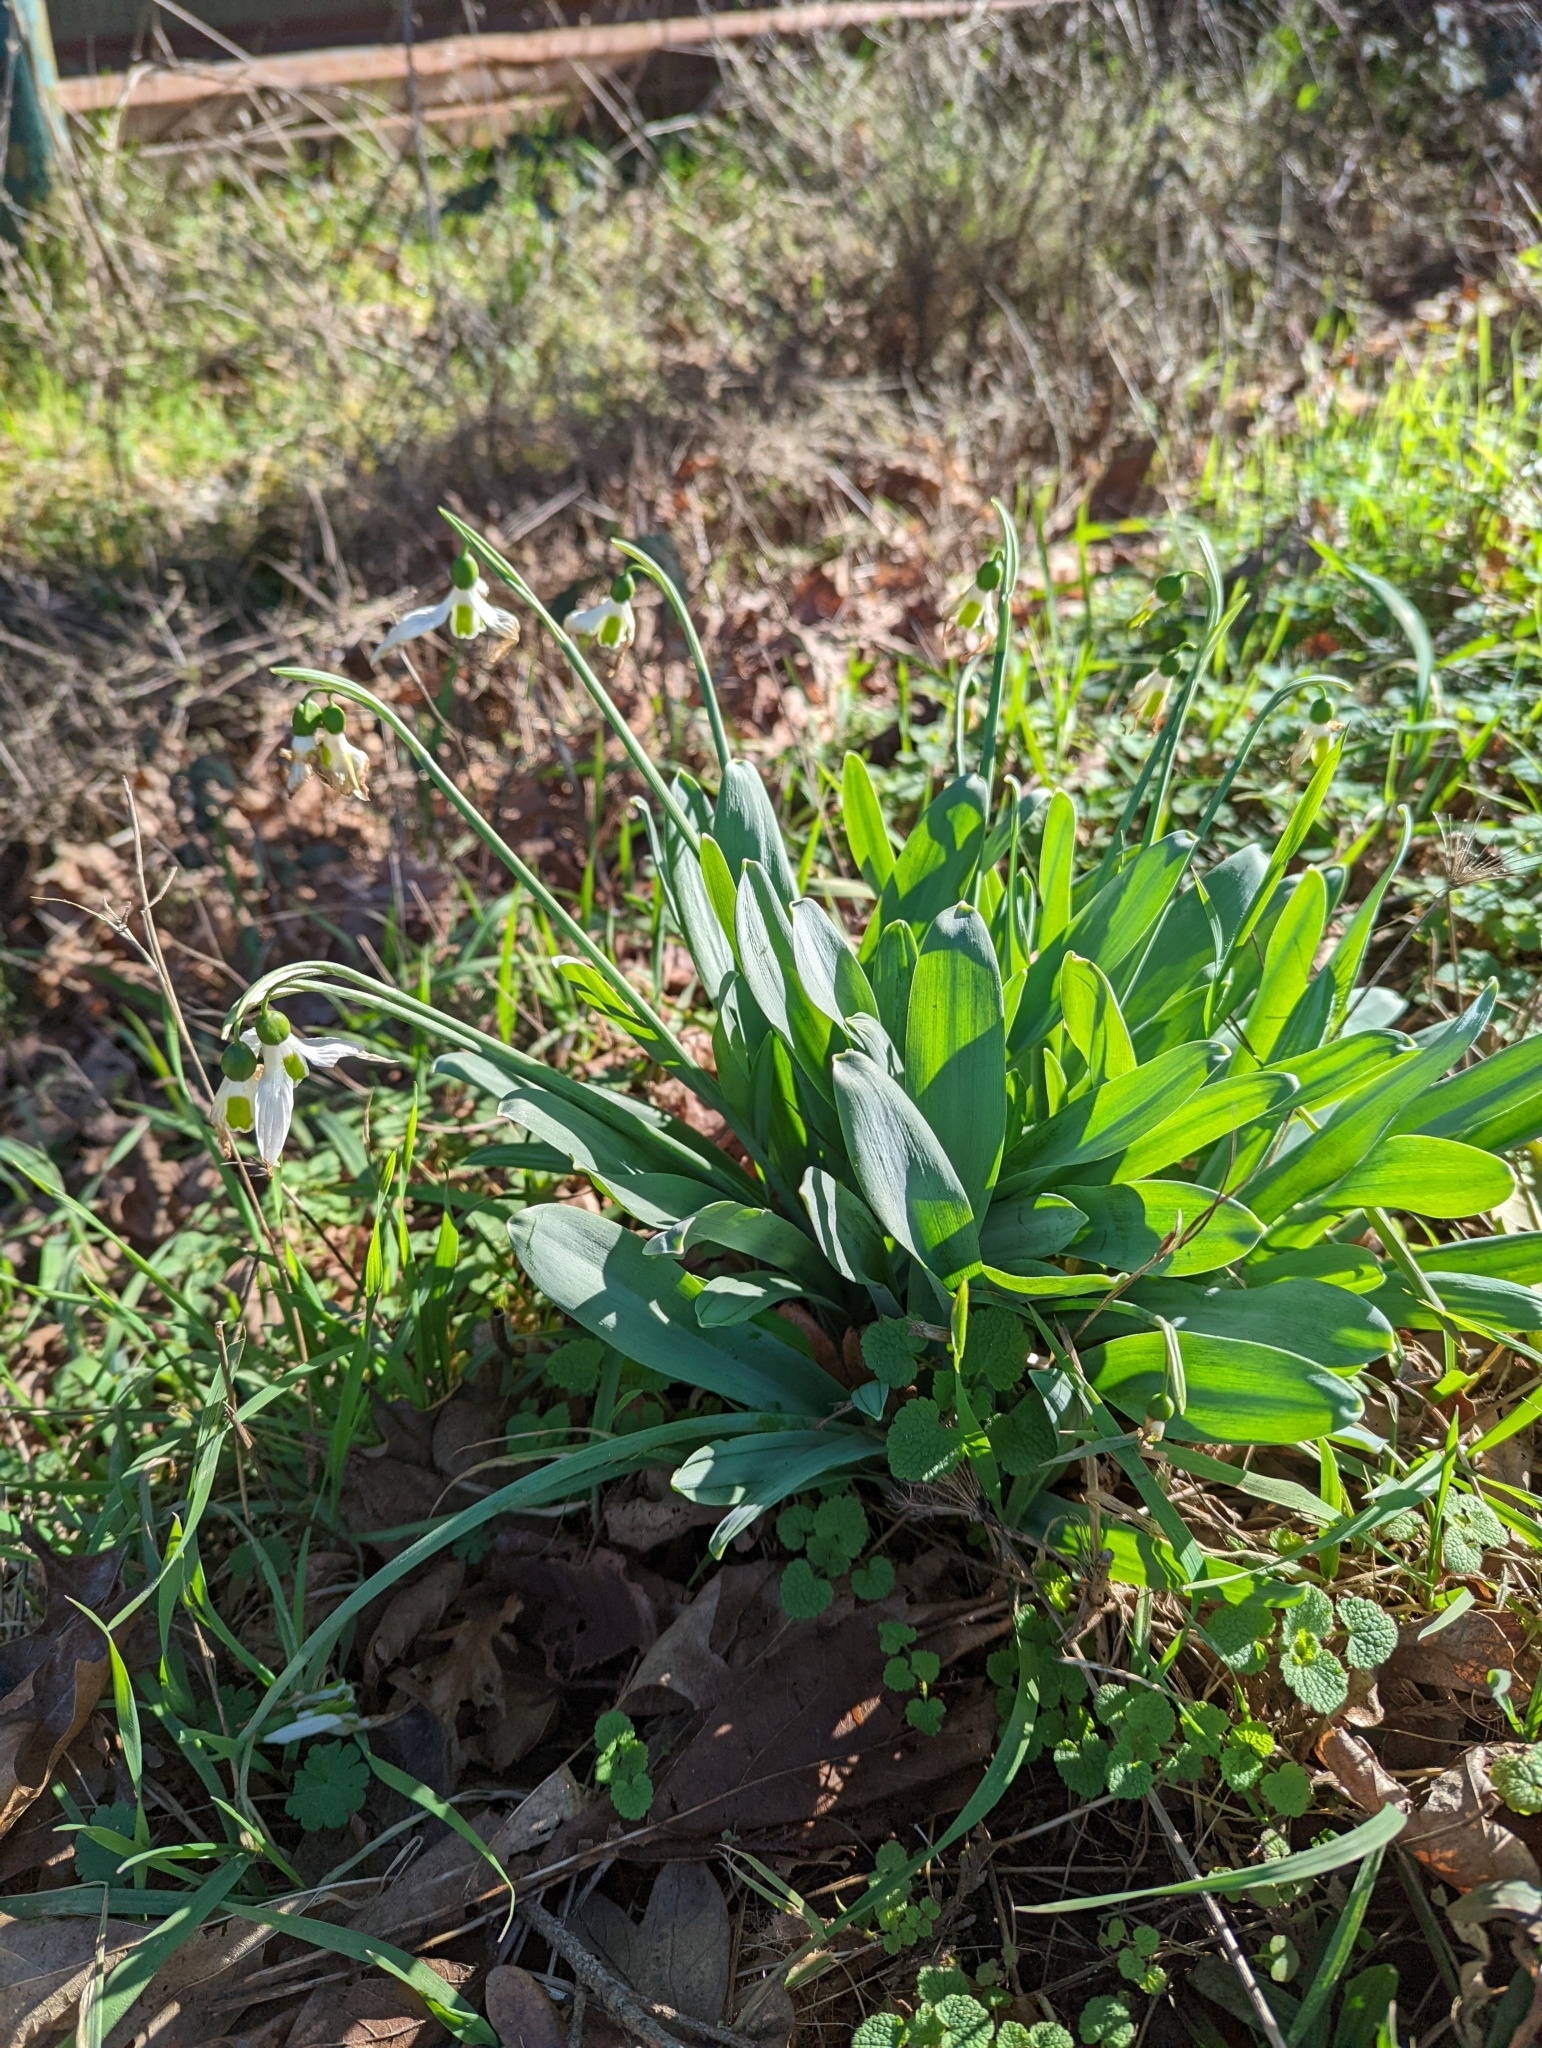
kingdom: Plantae
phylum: Tracheophyta
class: Liliopsida
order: Asparagales
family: Amaryllidaceae
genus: Galanthus
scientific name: Galanthus elwesii
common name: Greater snowdrop
